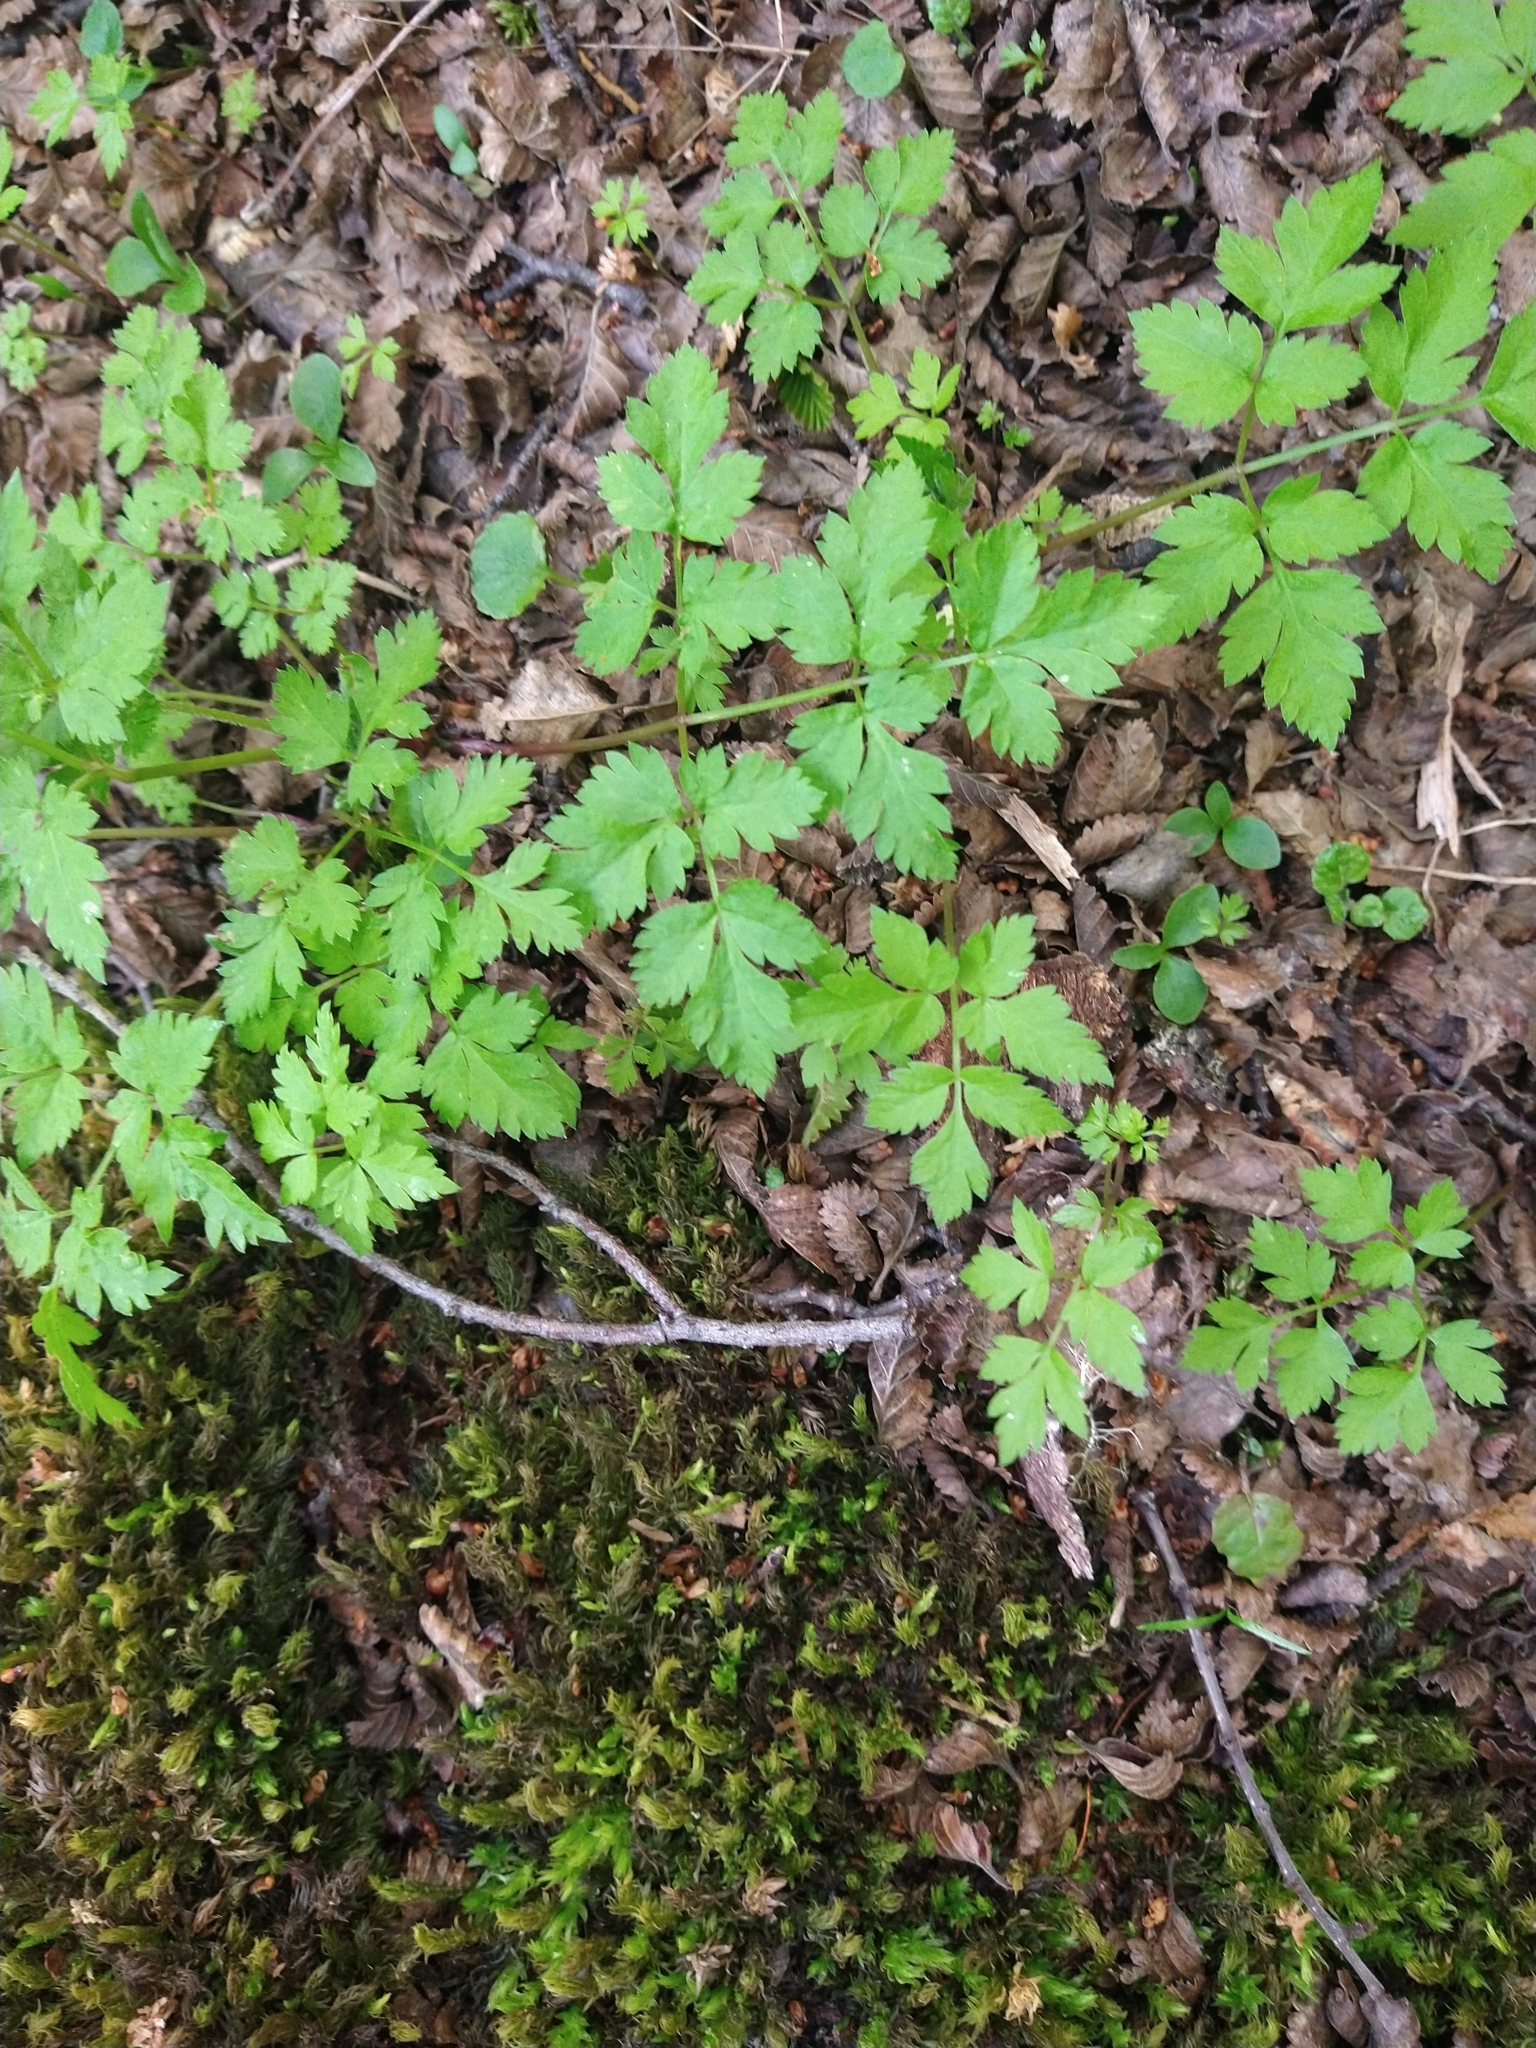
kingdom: Plantae
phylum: Tracheophyta
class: Magnoliopsida
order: Apiales
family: Apiaceae
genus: Osmorhiza
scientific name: Osmorhiza berteroi
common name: Mountain sweet cicely
